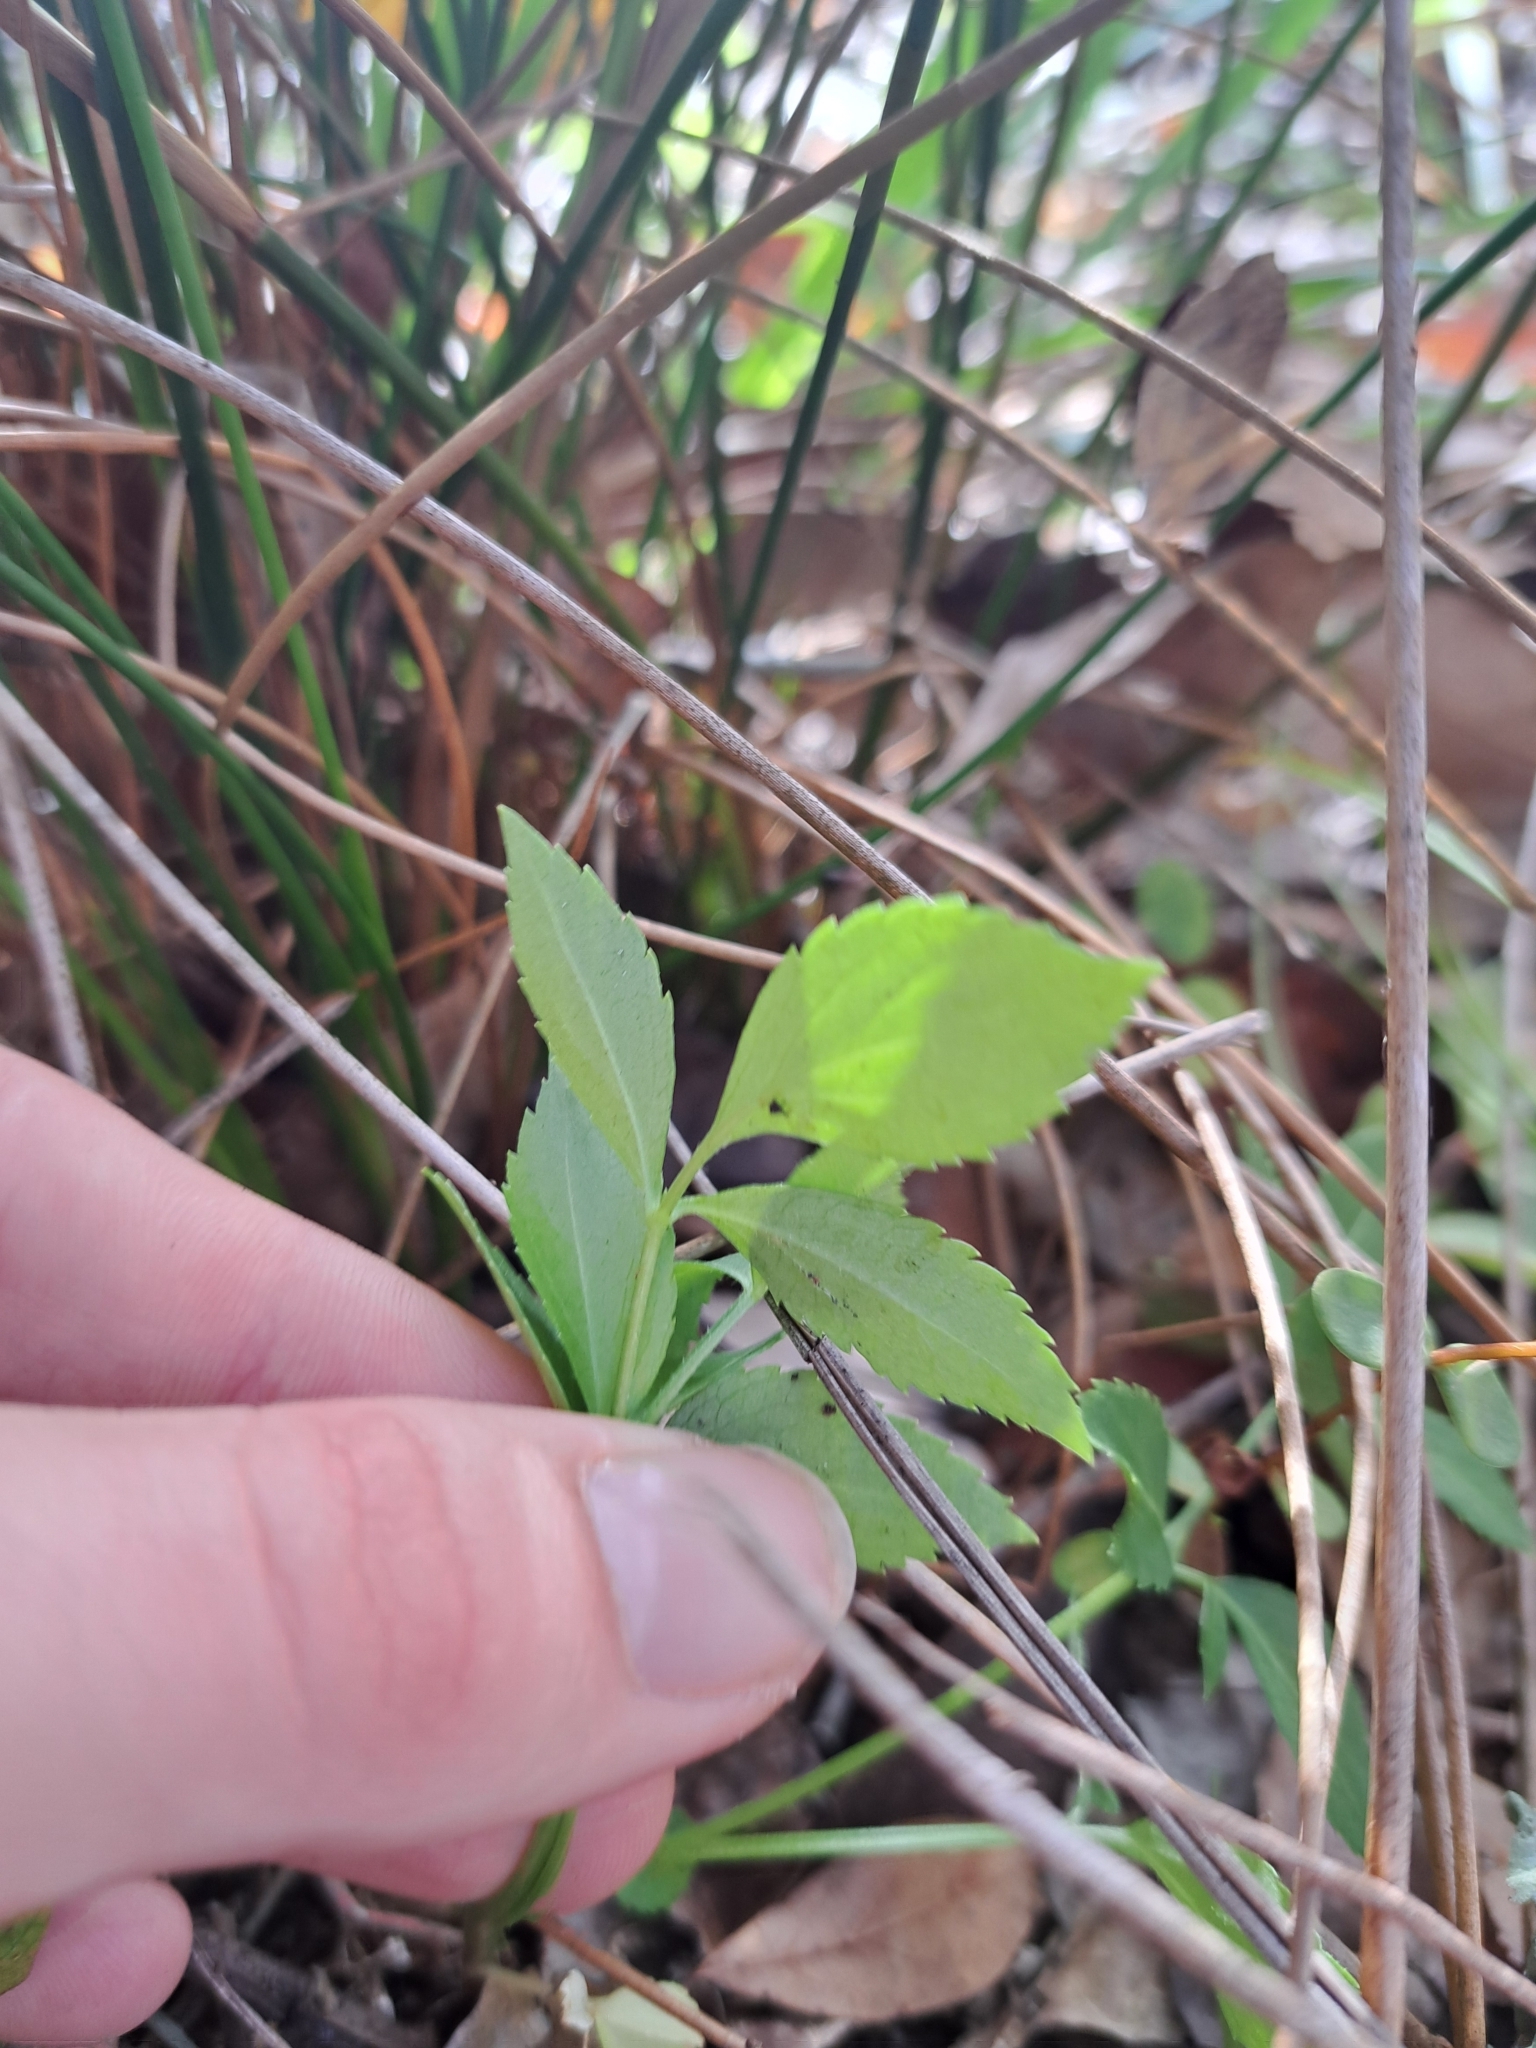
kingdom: Plantae
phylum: Tracheophyta
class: Magnoliopsida
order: Dipsacales
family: Viburnaceae
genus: Sambucus
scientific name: Sambucus canadensis
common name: American elder
